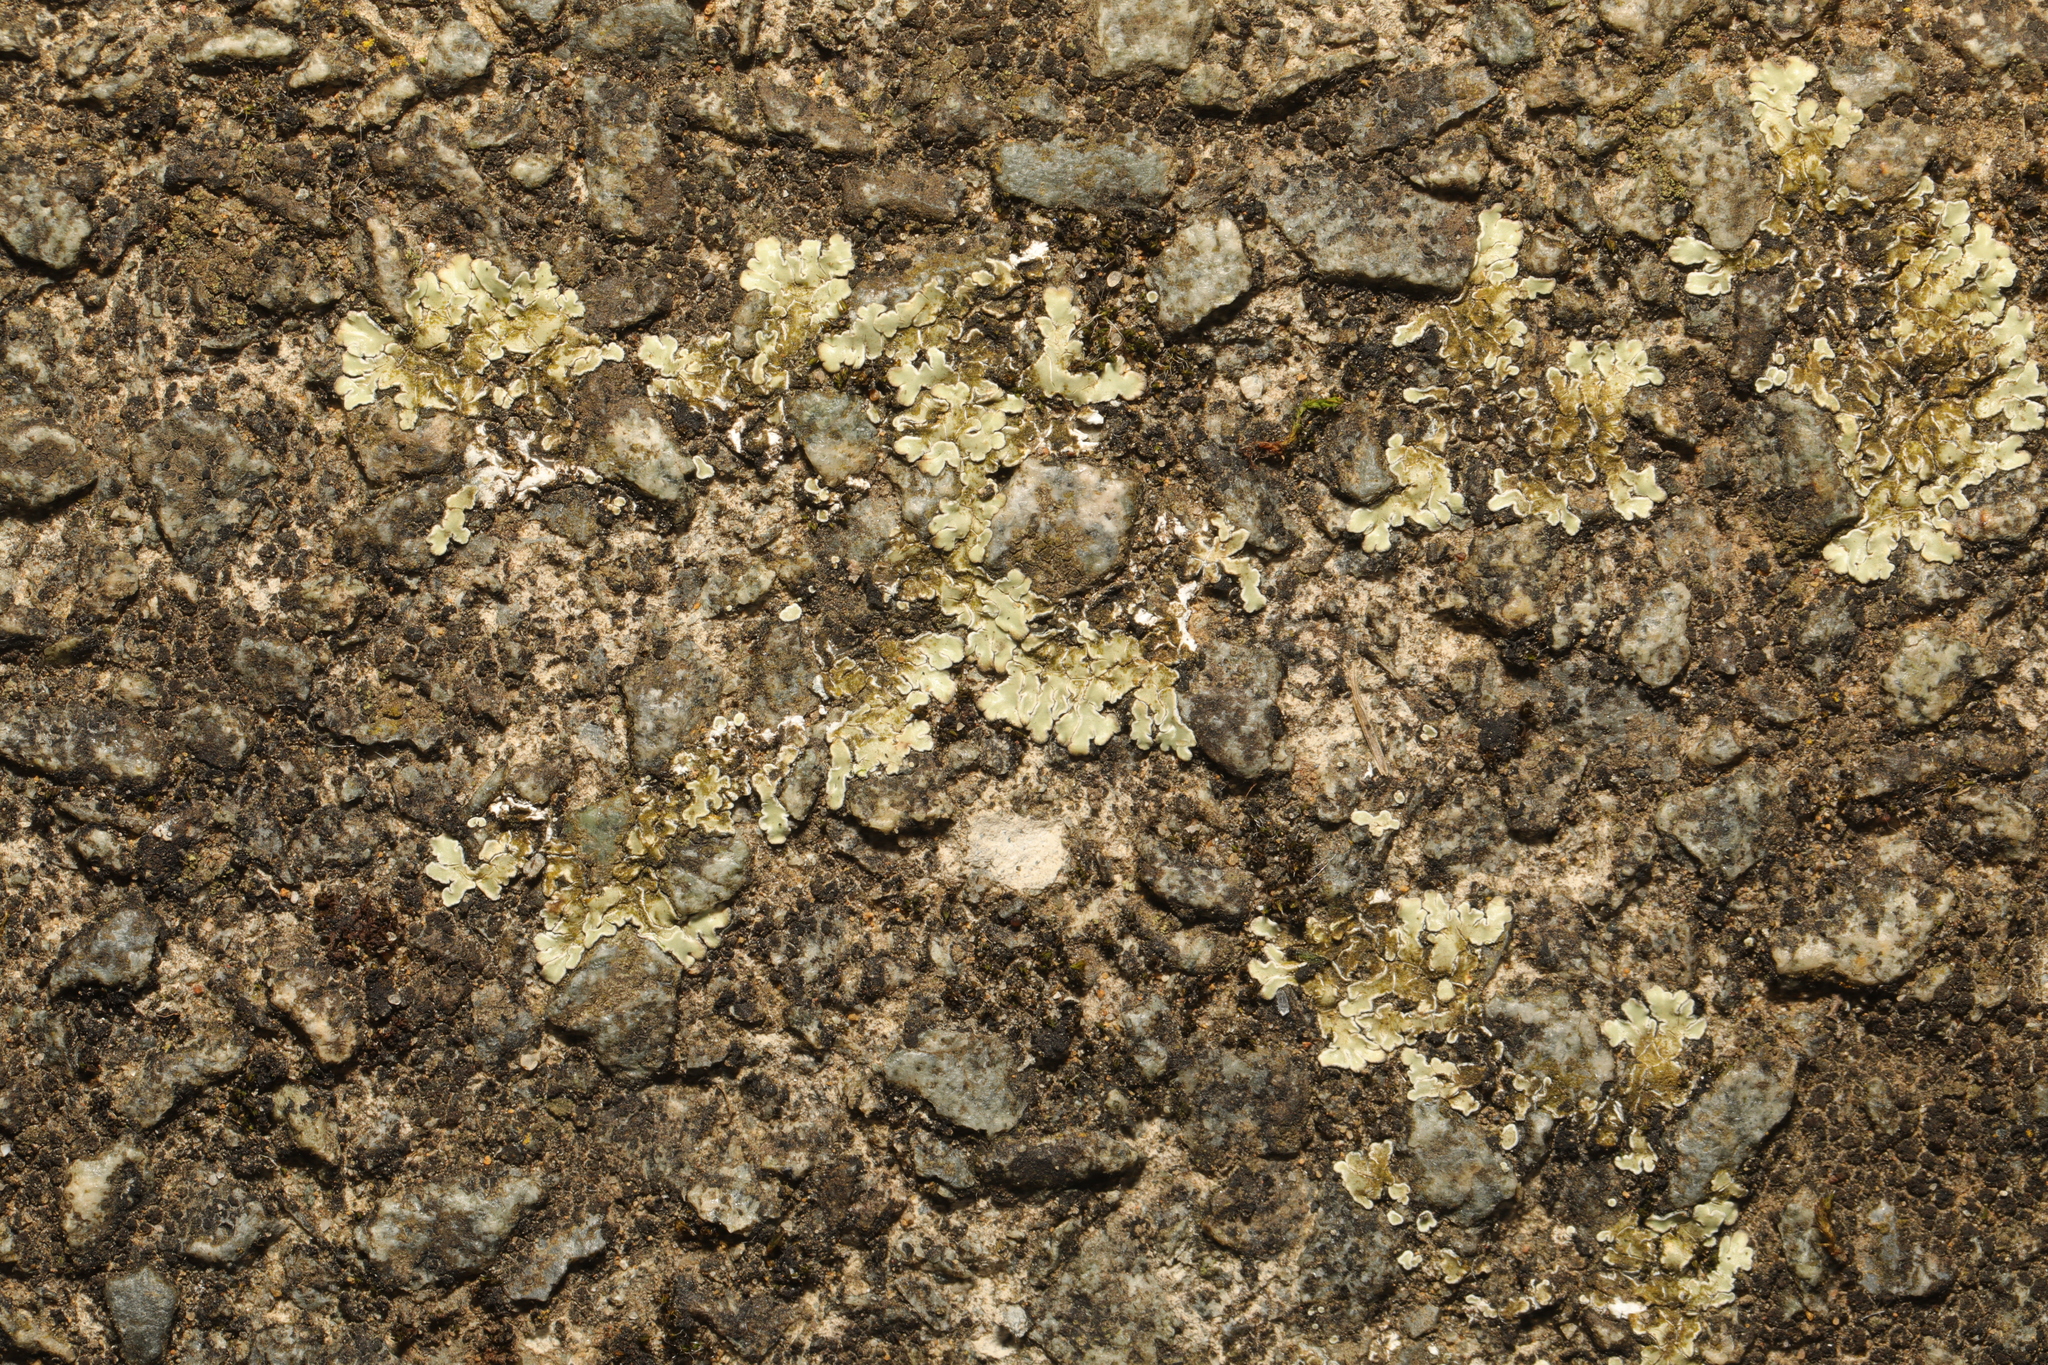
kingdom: Fungi
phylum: Ascomycota
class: Lecanoromycetes
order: Lecanorales
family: Lecanoraceae
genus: Protoparmeliopsis
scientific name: Protoparmeliopsis muralis
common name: Stonewall rim lichen
